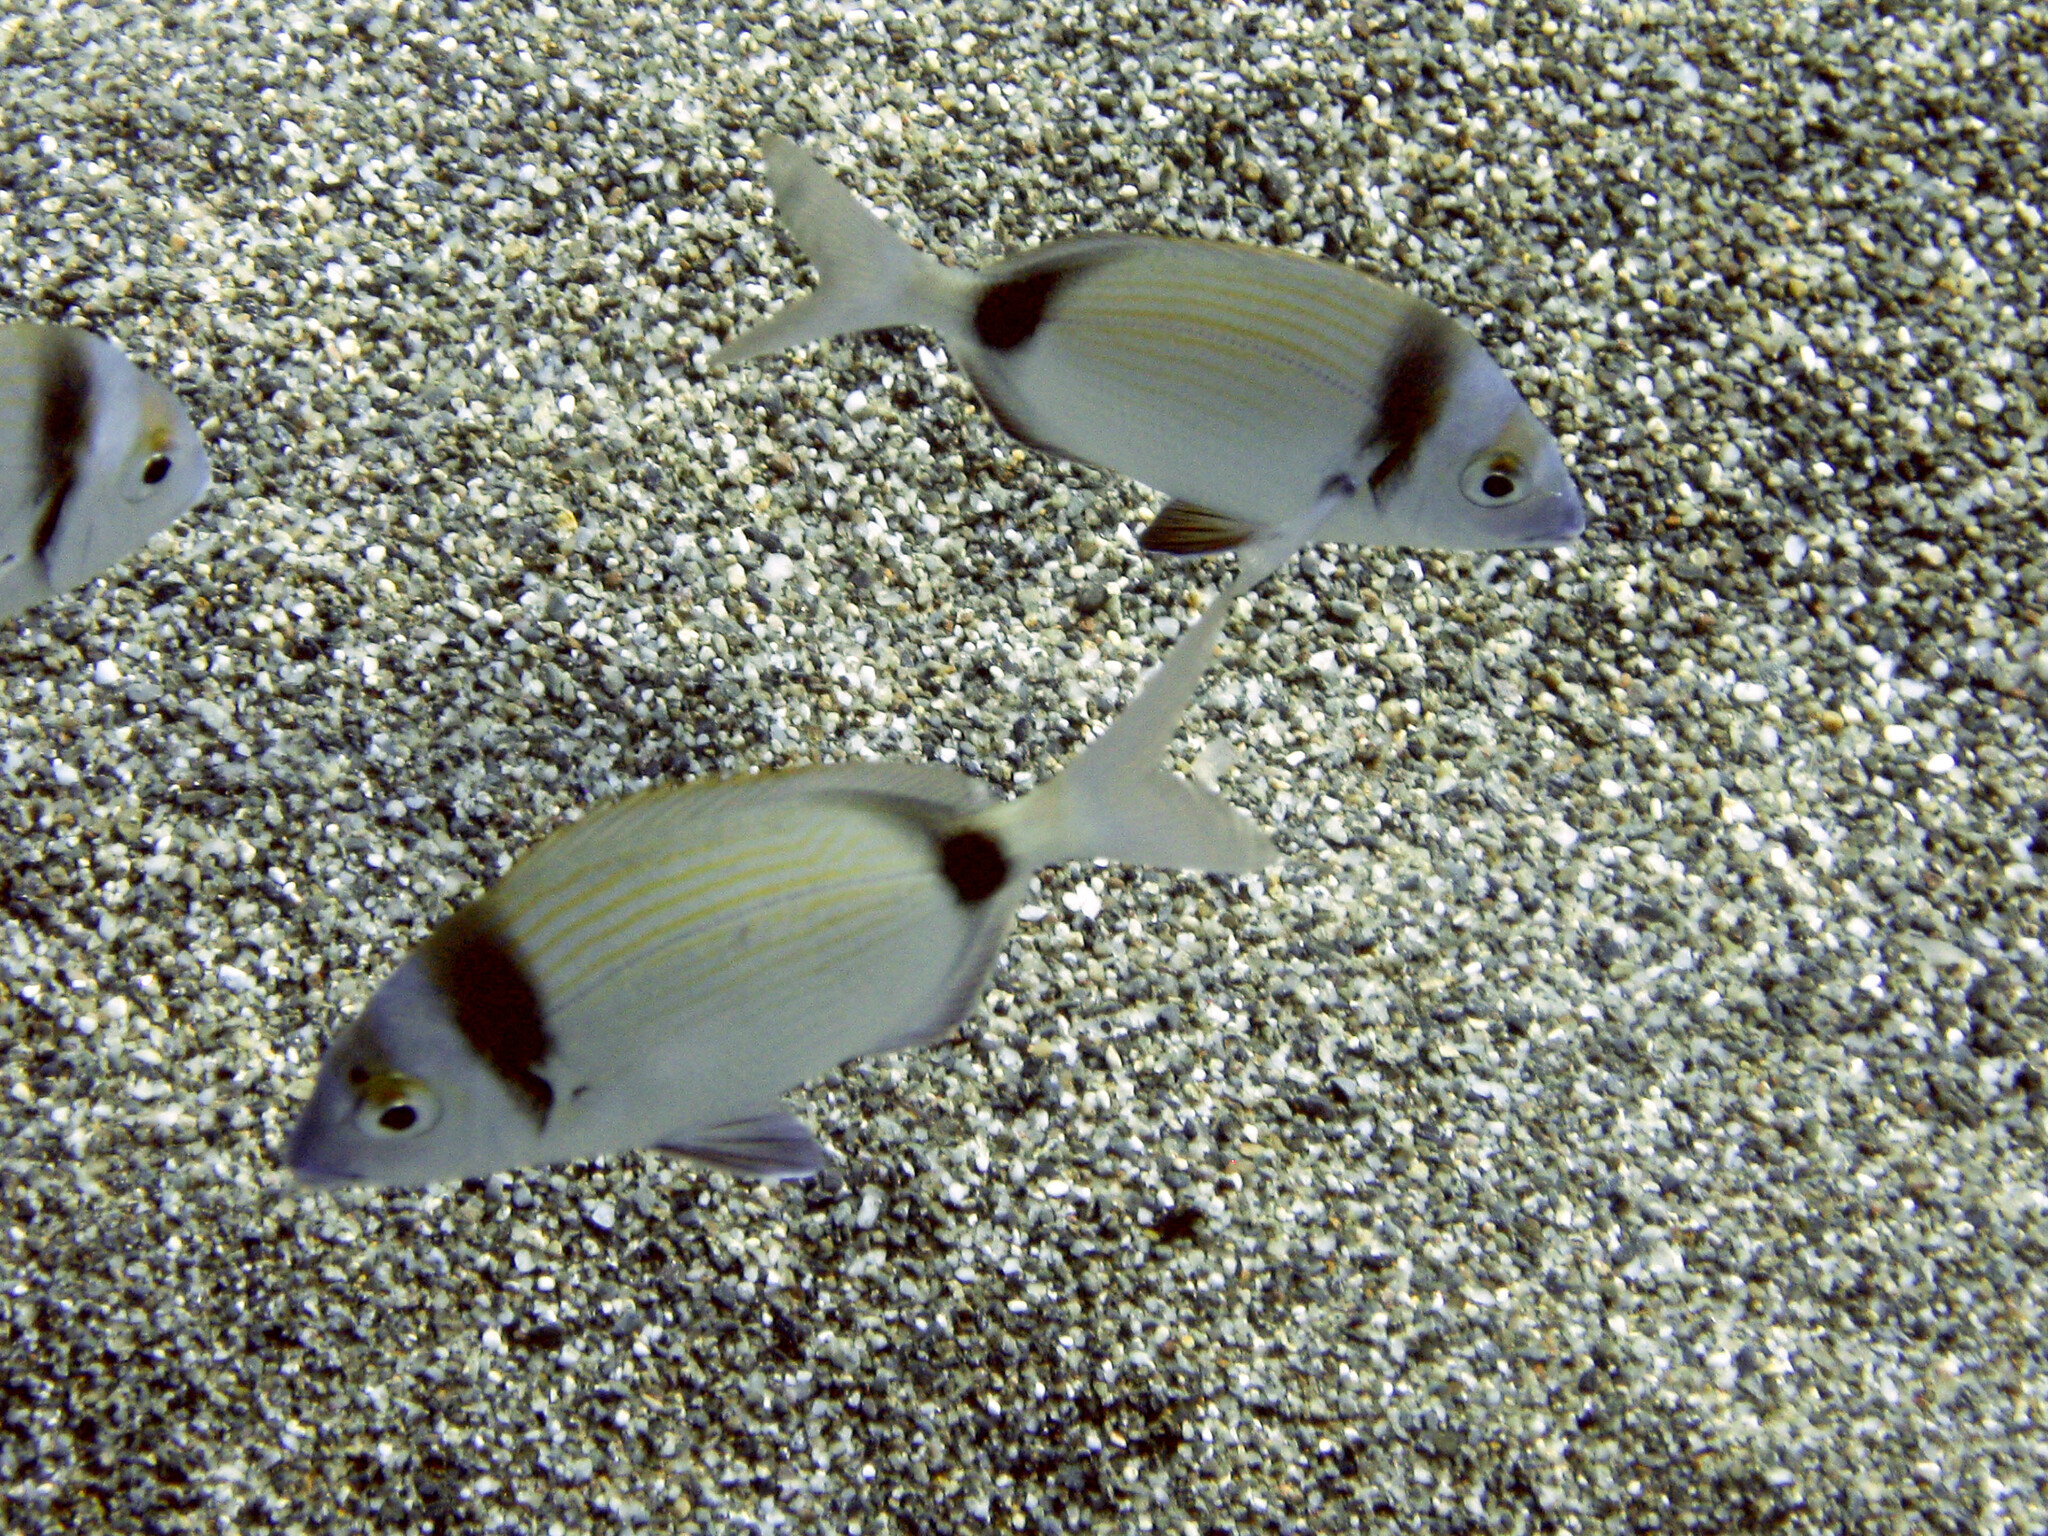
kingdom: Animalia
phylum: Chordata
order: Perciformes
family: Sparidae
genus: Diplodus
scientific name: Diplodus vulgaris
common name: Common two-banded seabream
